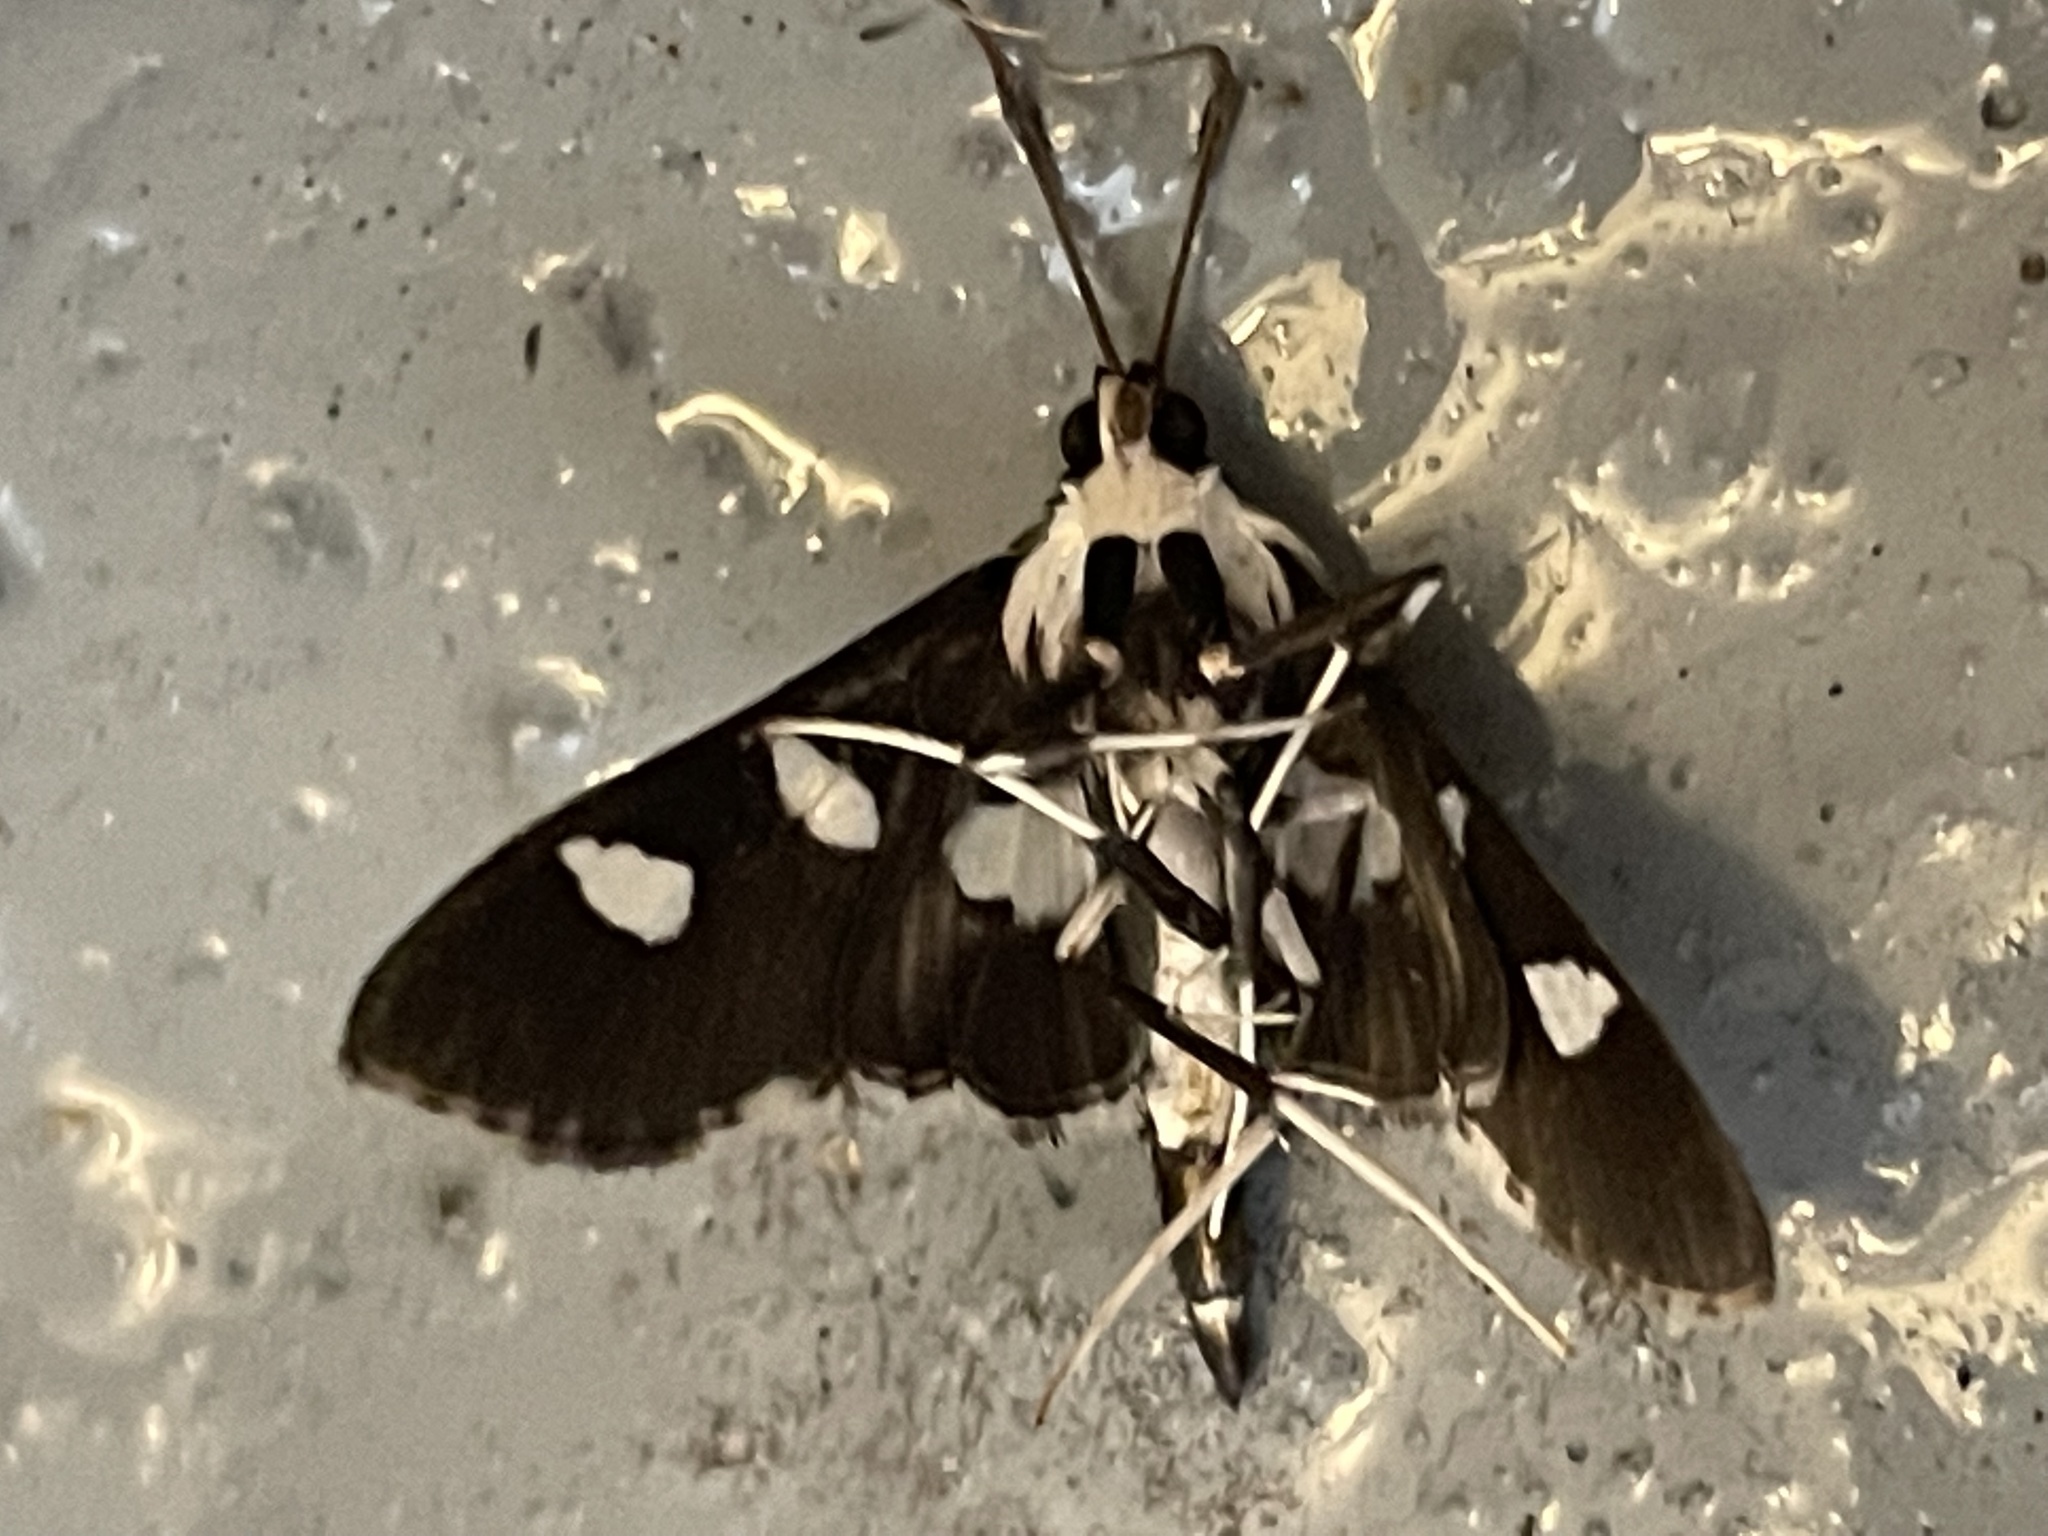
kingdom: Animalia
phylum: Arthropoda
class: Insecta
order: Lepidoptera
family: Crambidae
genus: Desmia
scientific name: Desmia funeralis
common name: Grape leaf folder moth
